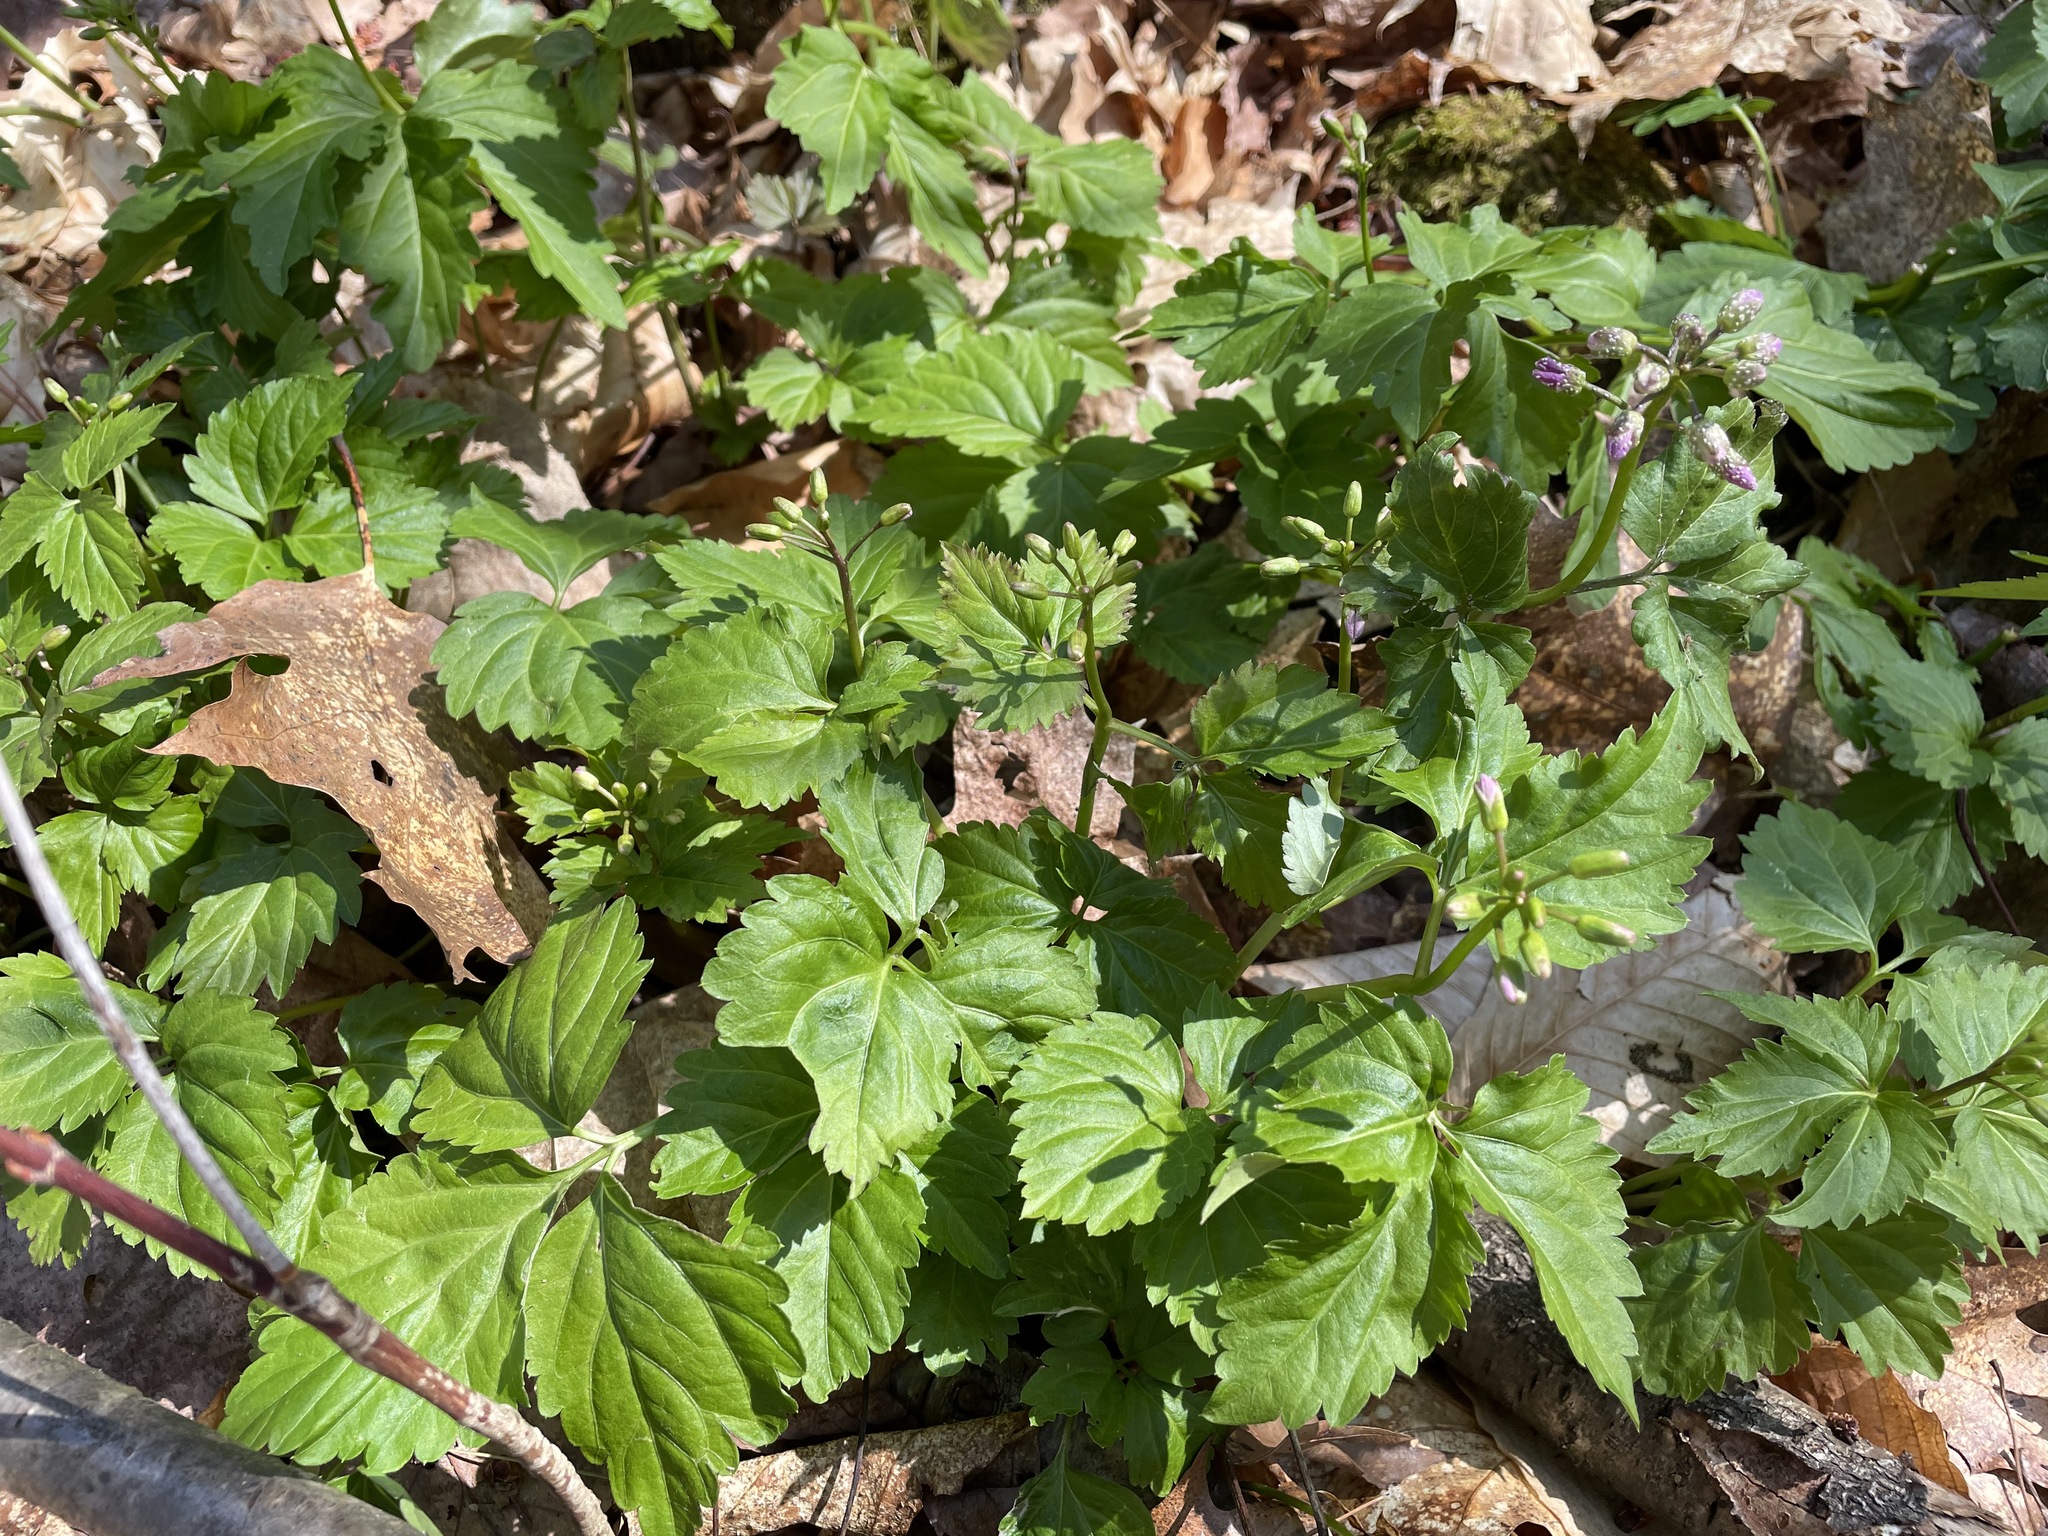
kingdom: Plantae
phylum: Tracheophyta
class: Magnoliopsida
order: Brassicales
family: Brassicaceae
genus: Cardamine
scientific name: Cardamine diphylla
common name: Broad-leaved toothwort
